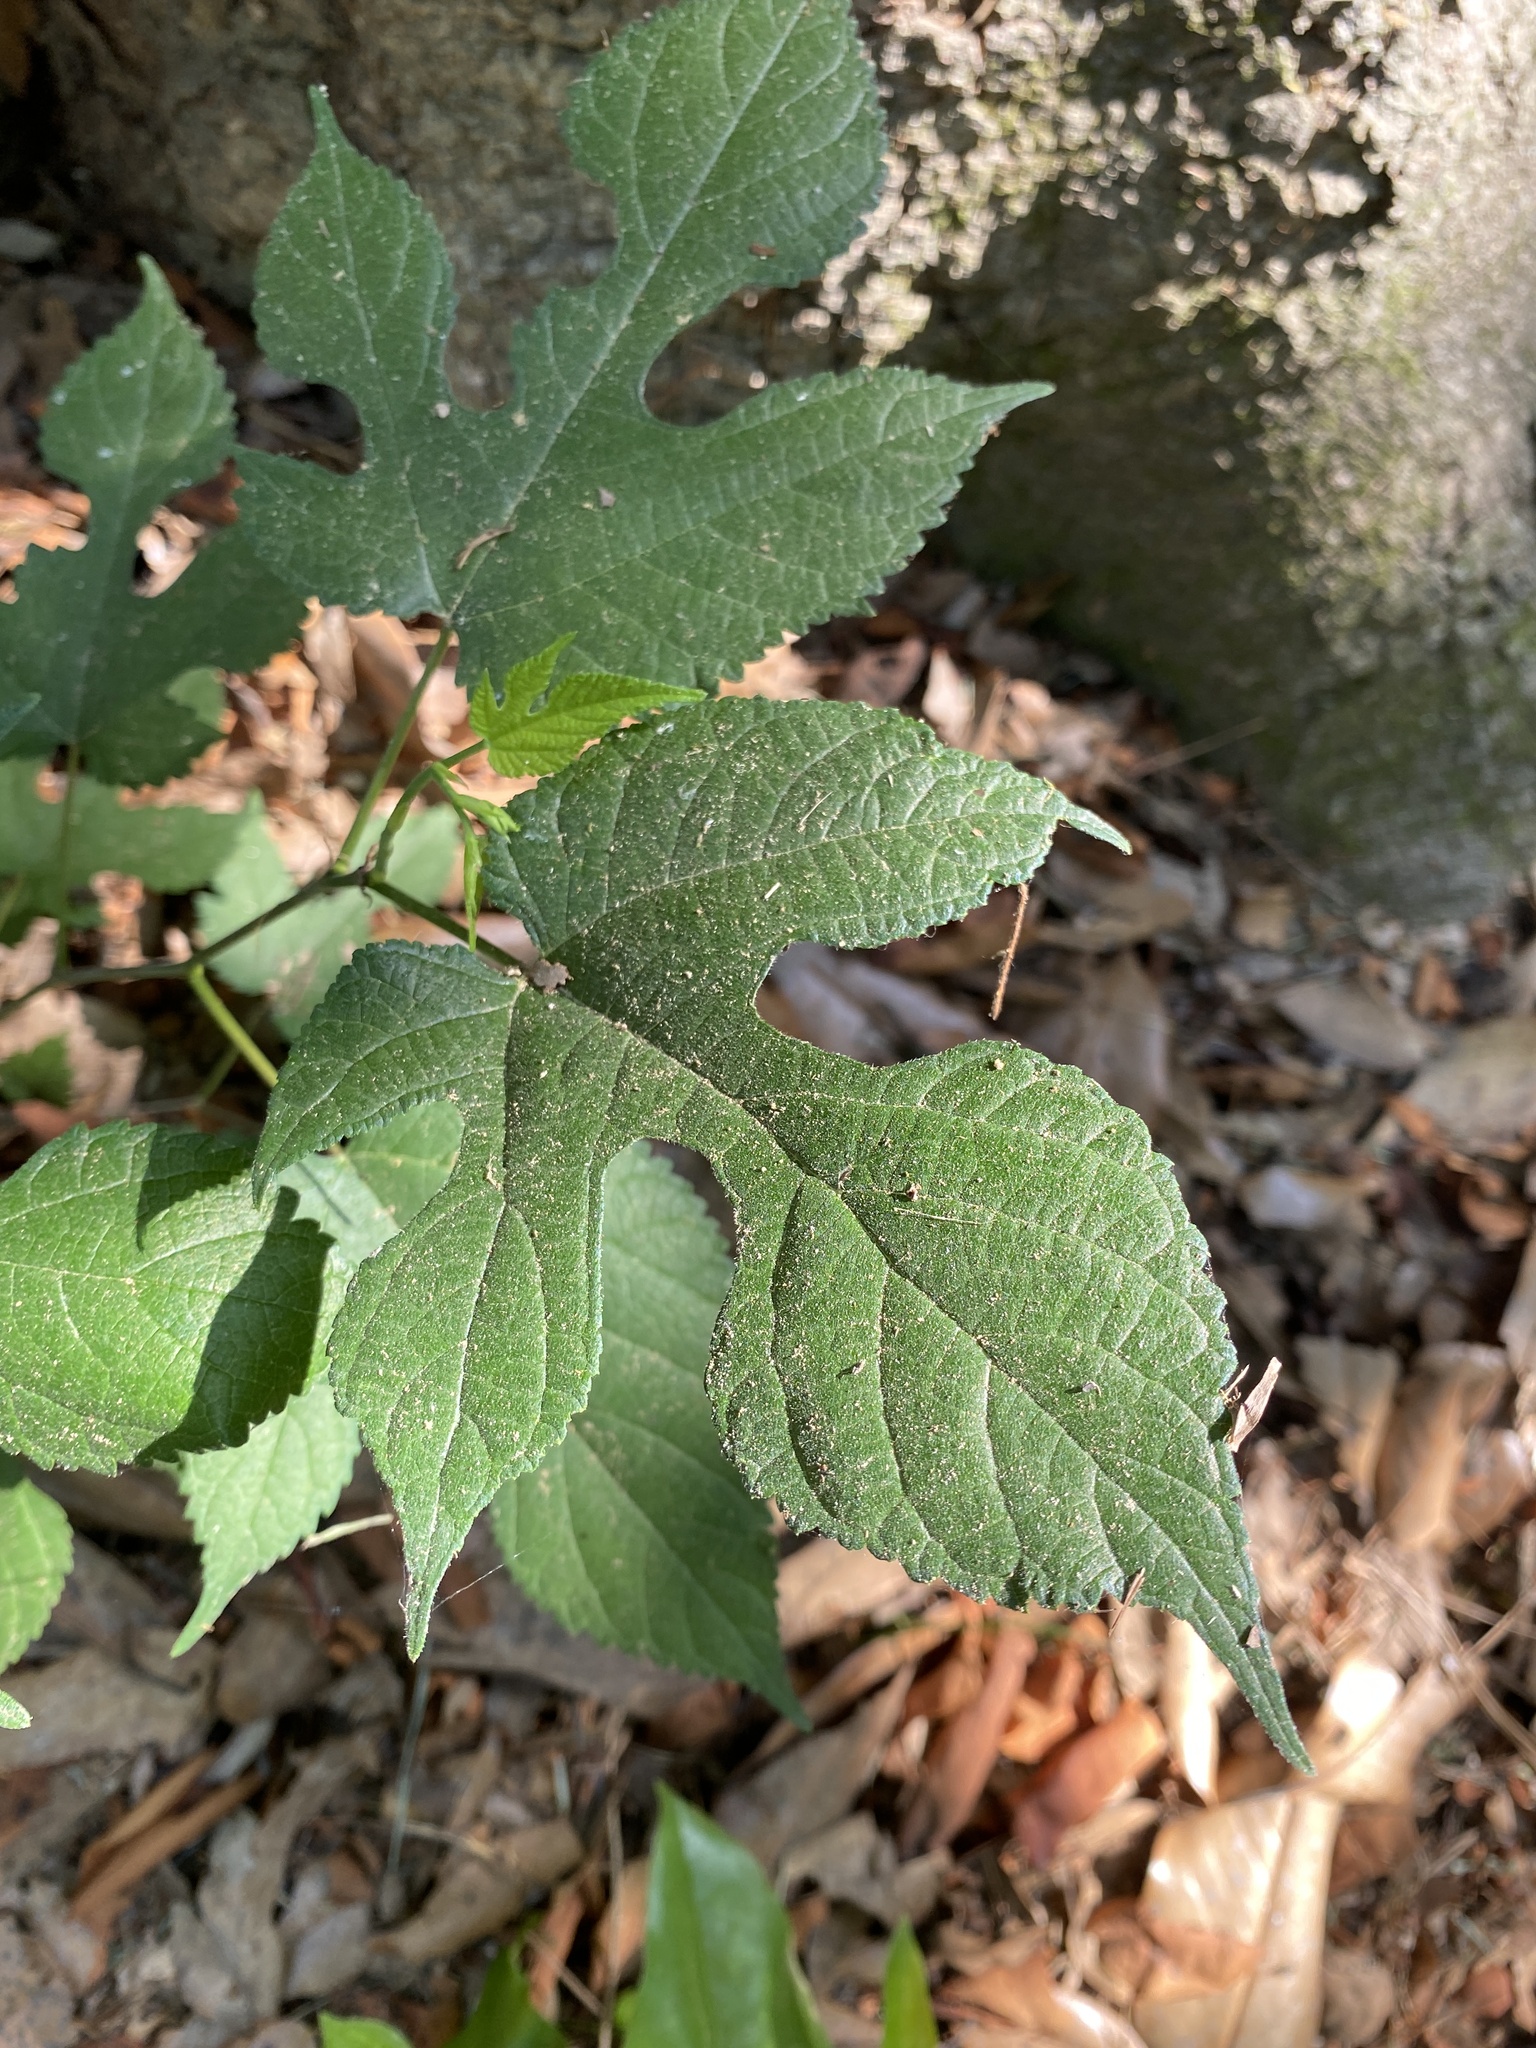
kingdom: Plantae
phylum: Tracheophyta
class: Magnoliopsida
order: Rosales
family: Moraceae
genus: Broussonetia
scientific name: Broussonetia papyrifera
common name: Paper mulberry
